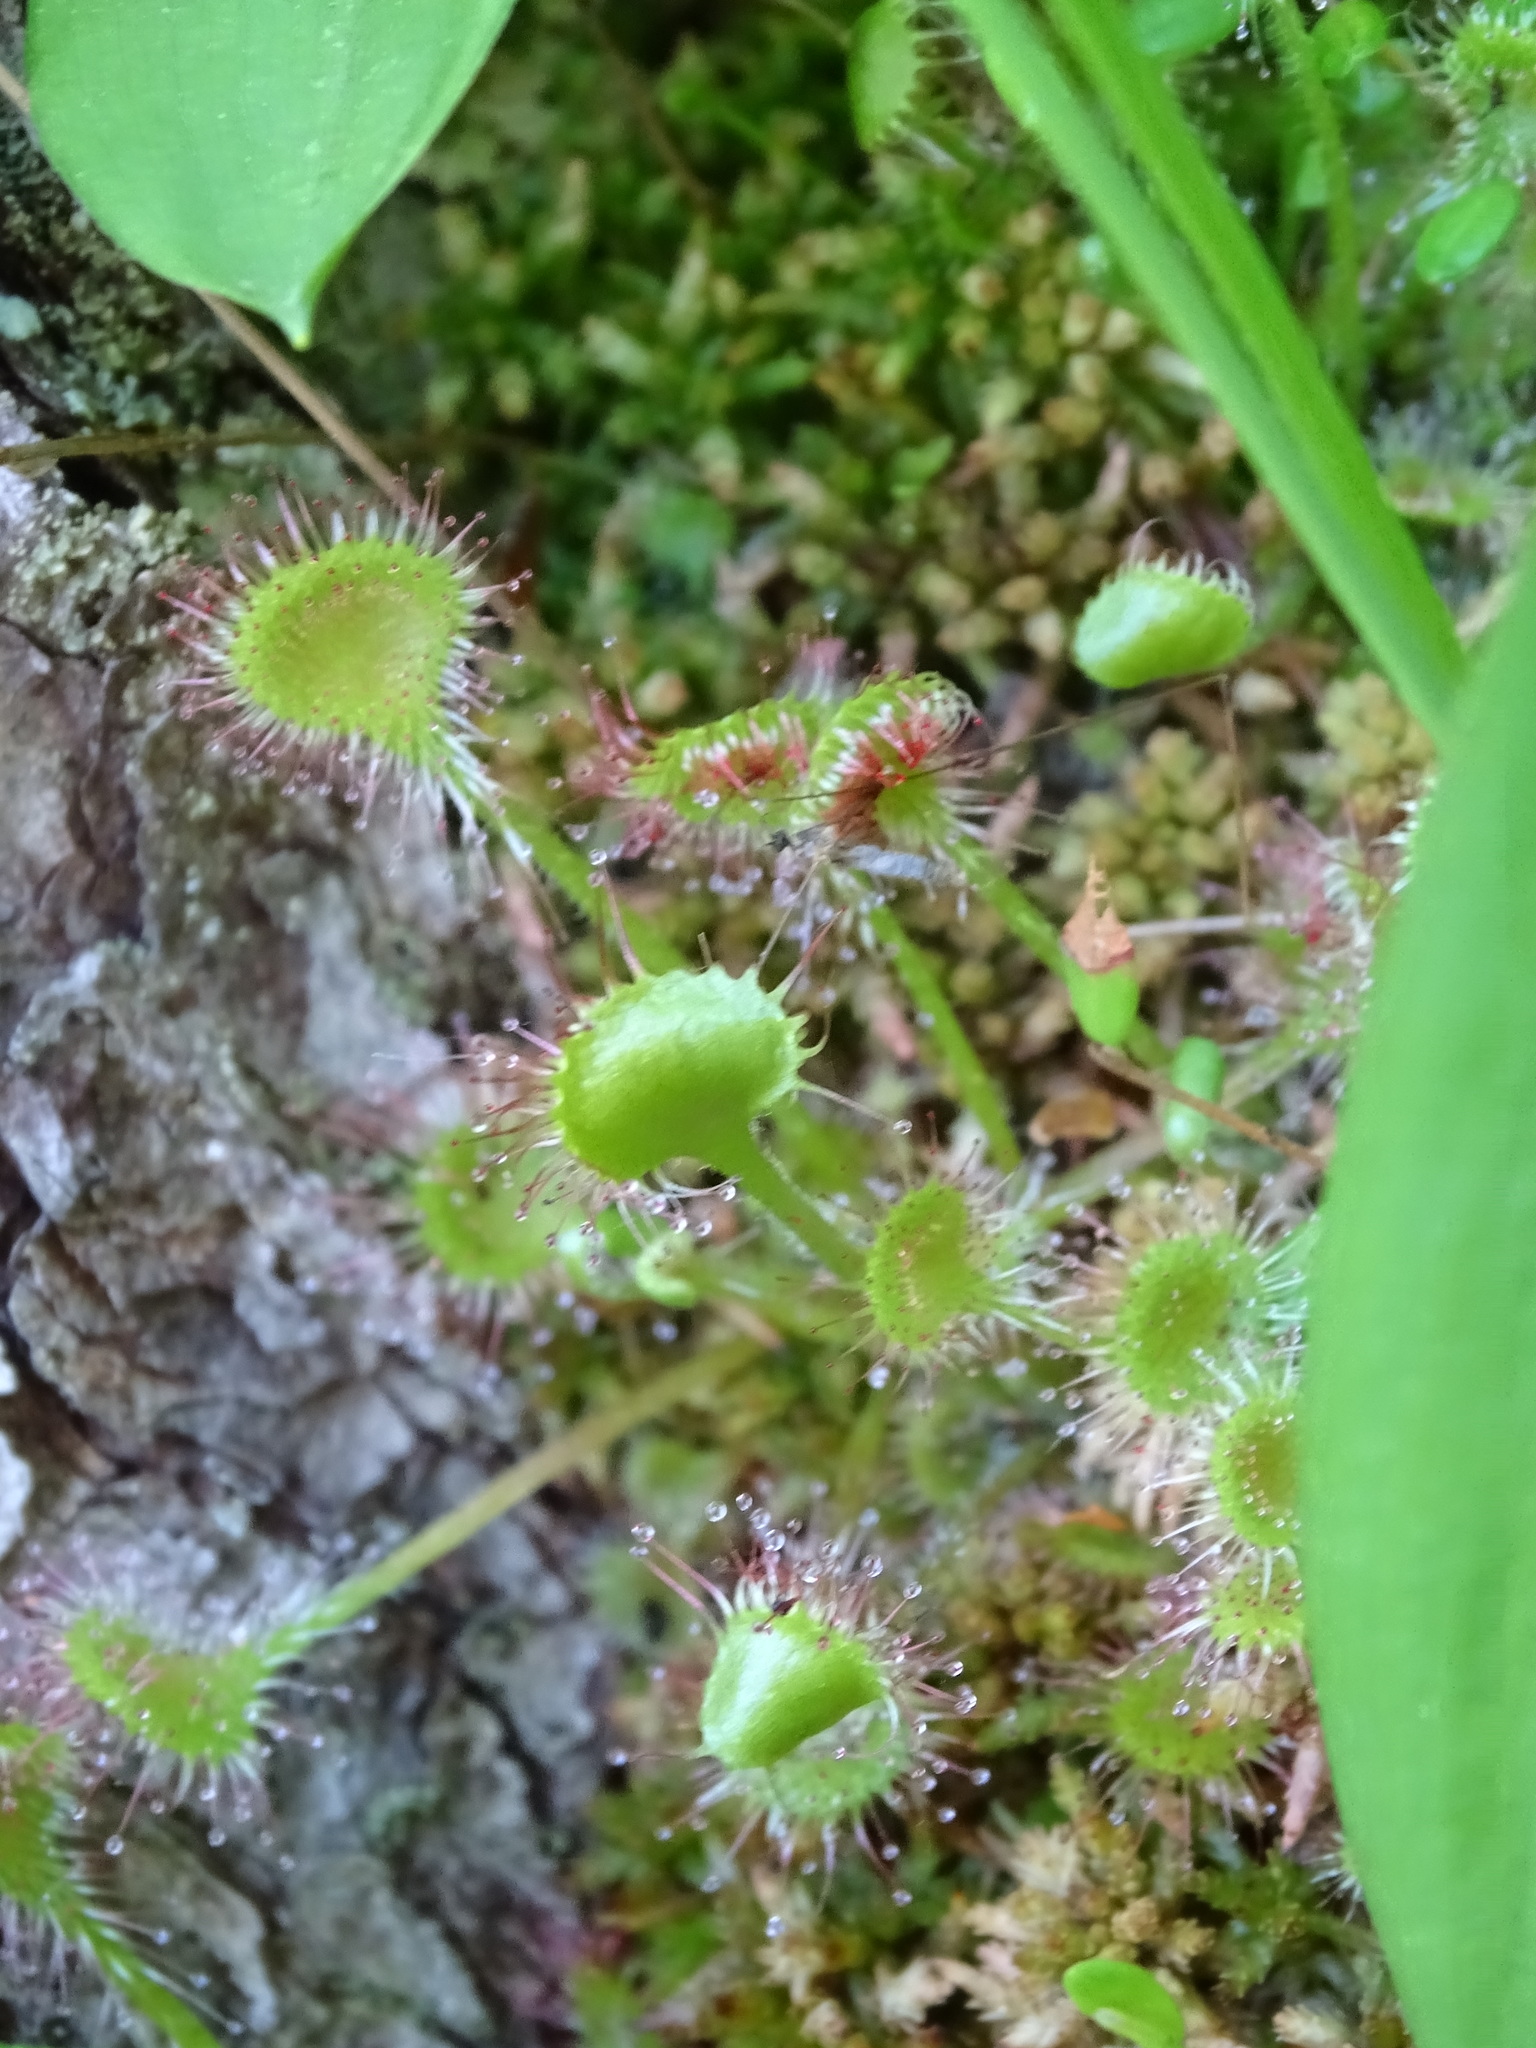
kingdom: Plantae
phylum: Tracheophyta
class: Magnoliopsida
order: Caryophyllales
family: Droseraceae
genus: Drosera
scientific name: Drosera rotundifolia
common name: Round-leaved sundew
